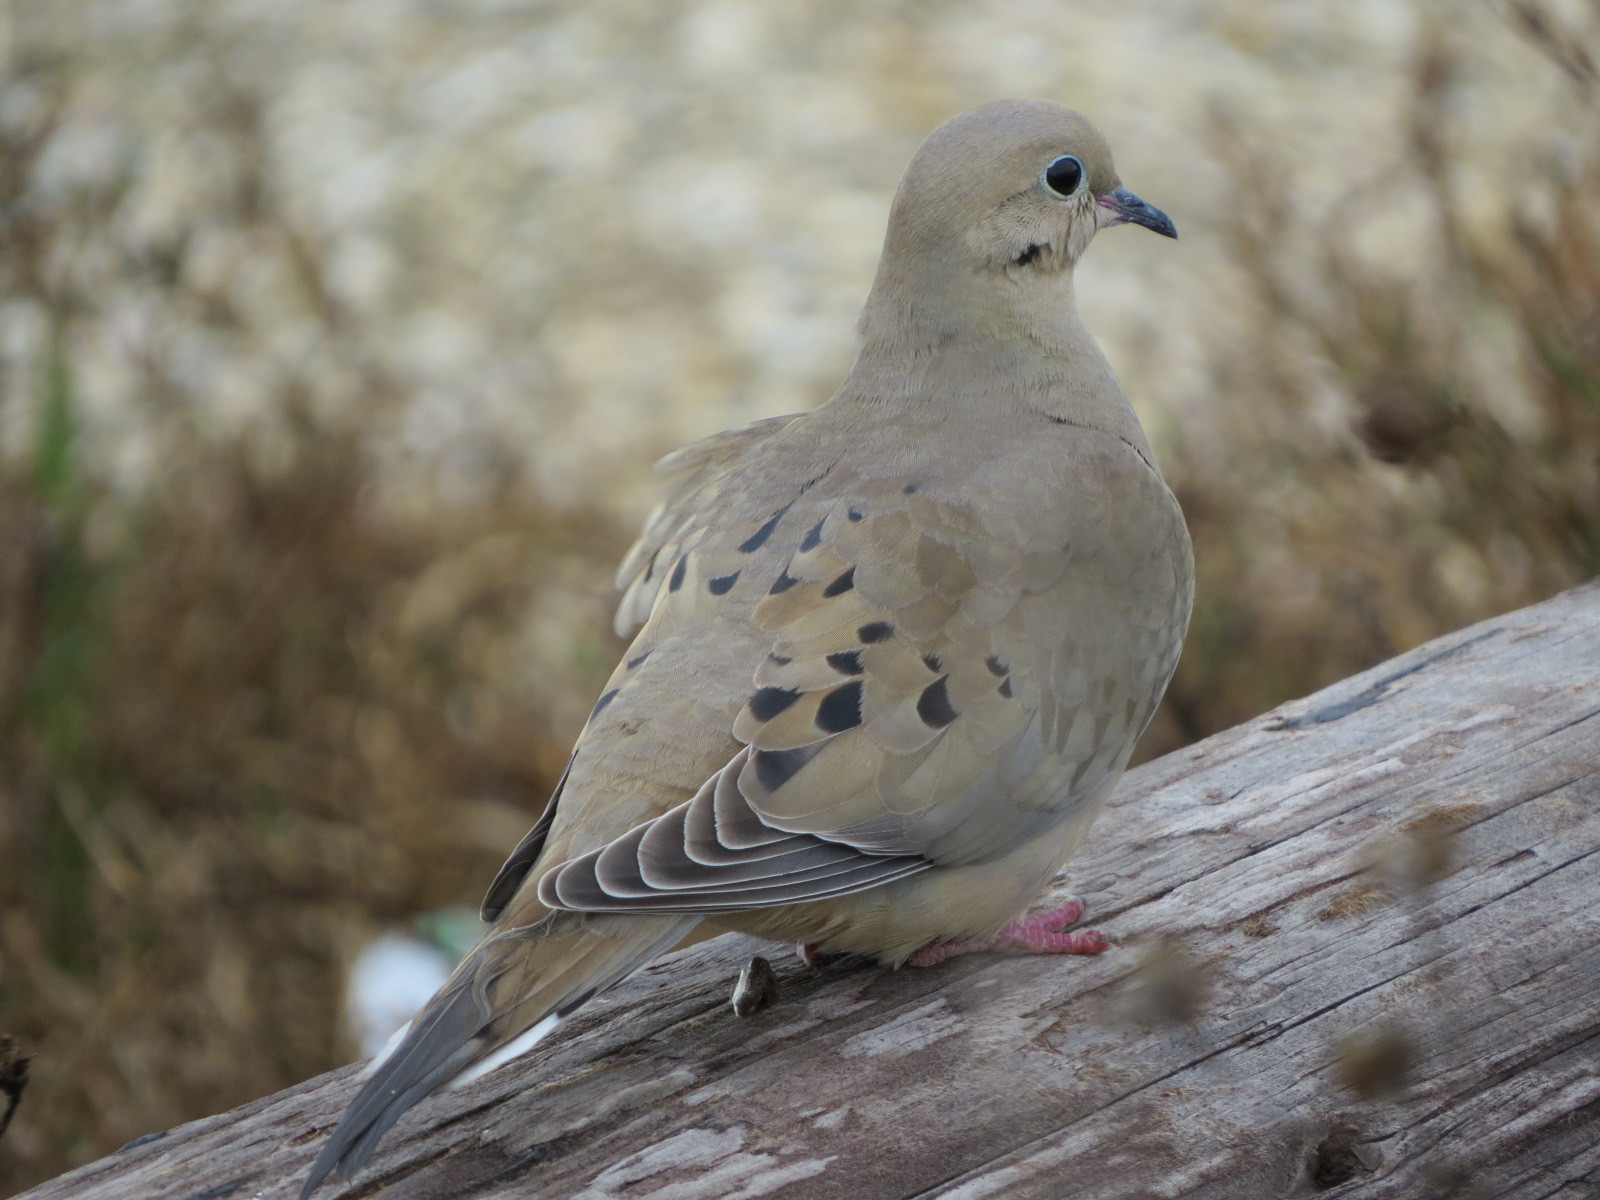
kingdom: Animalia
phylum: Chordata
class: Aves
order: Columbiformes
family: Columbidae
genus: Zenaida
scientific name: Zenaida macroura
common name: Mourning dove
